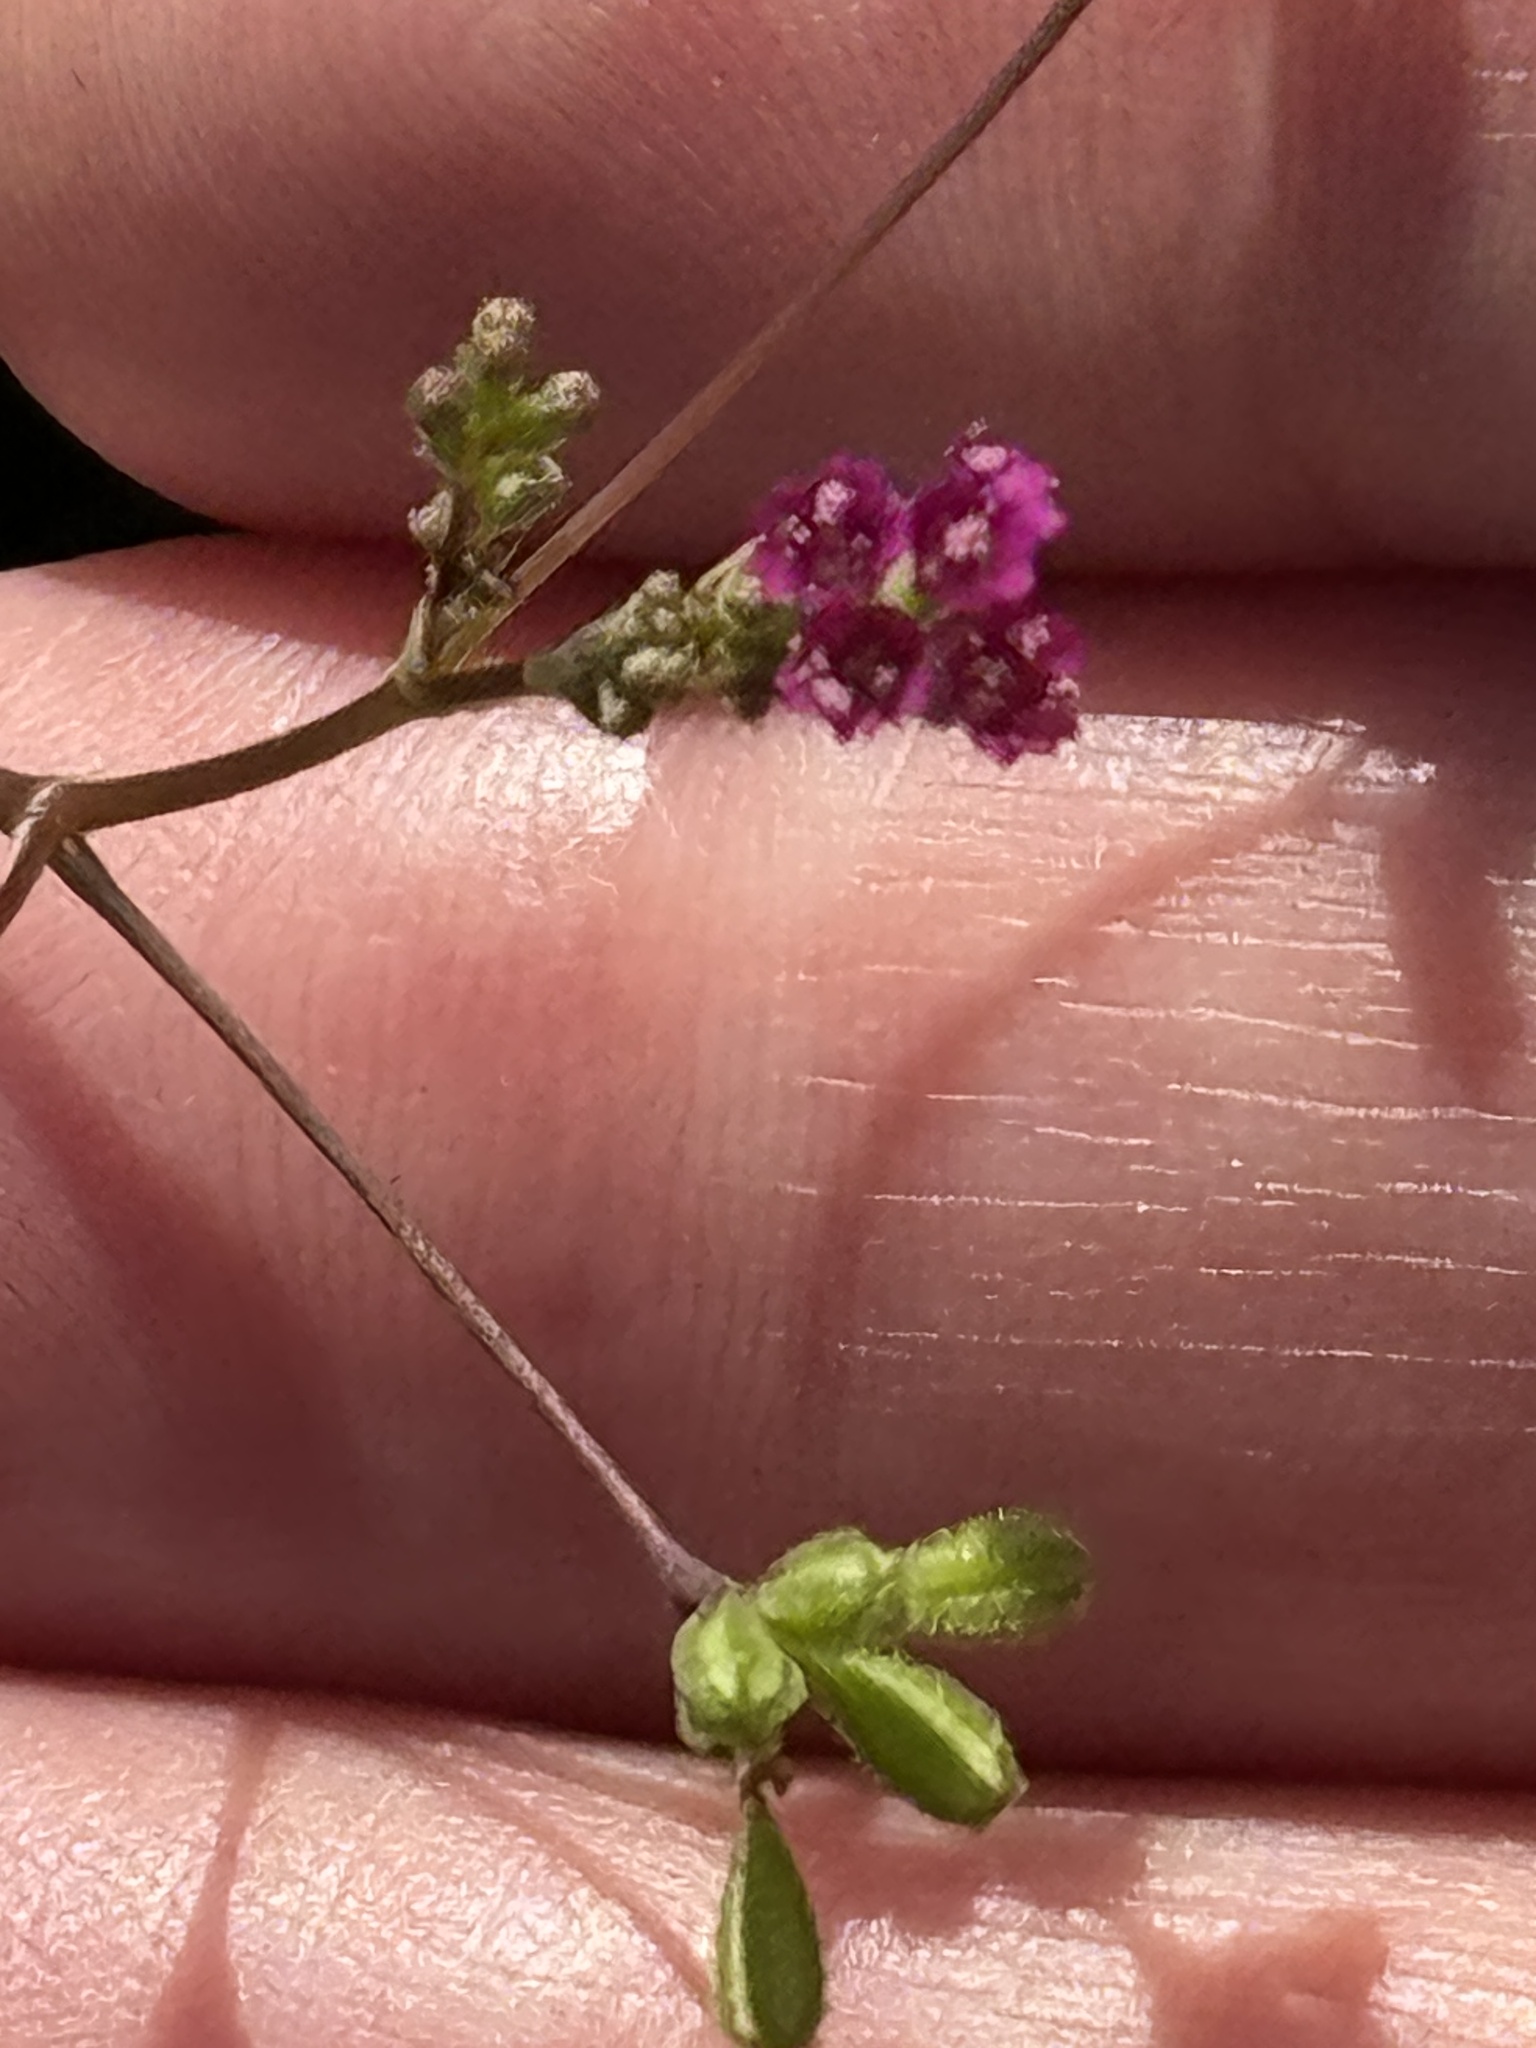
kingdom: Plantae
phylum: Tracheophyta
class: Magnoliopsida
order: Caryophyllales
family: Nyctaginaceae
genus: Boerhavia
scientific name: Boerhavia diffusa
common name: Red spiderling
